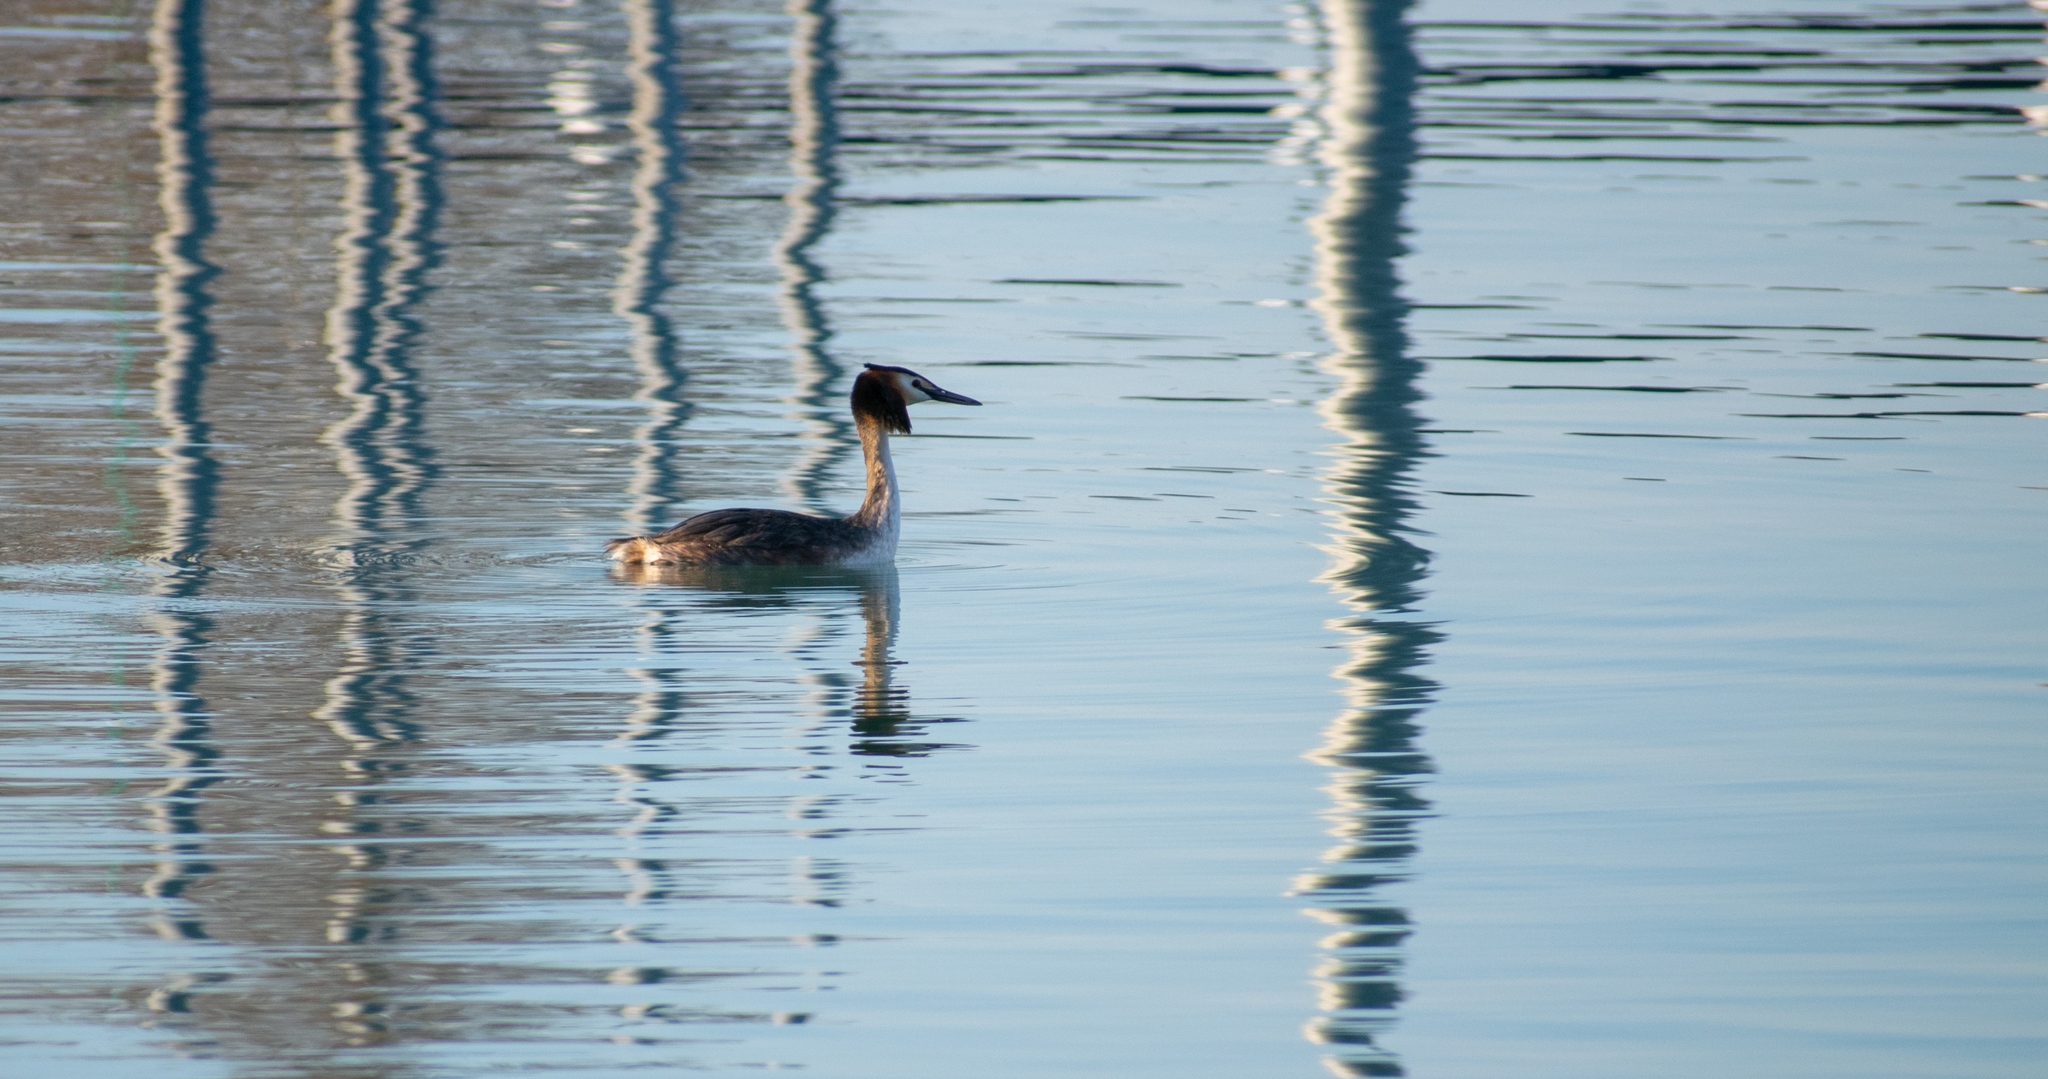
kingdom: Animalia
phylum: Chordata
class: Aves
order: Podicipediformes
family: Podicipedidae
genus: Podiceps
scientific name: Podiceps cristatus
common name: Great crested grebe
